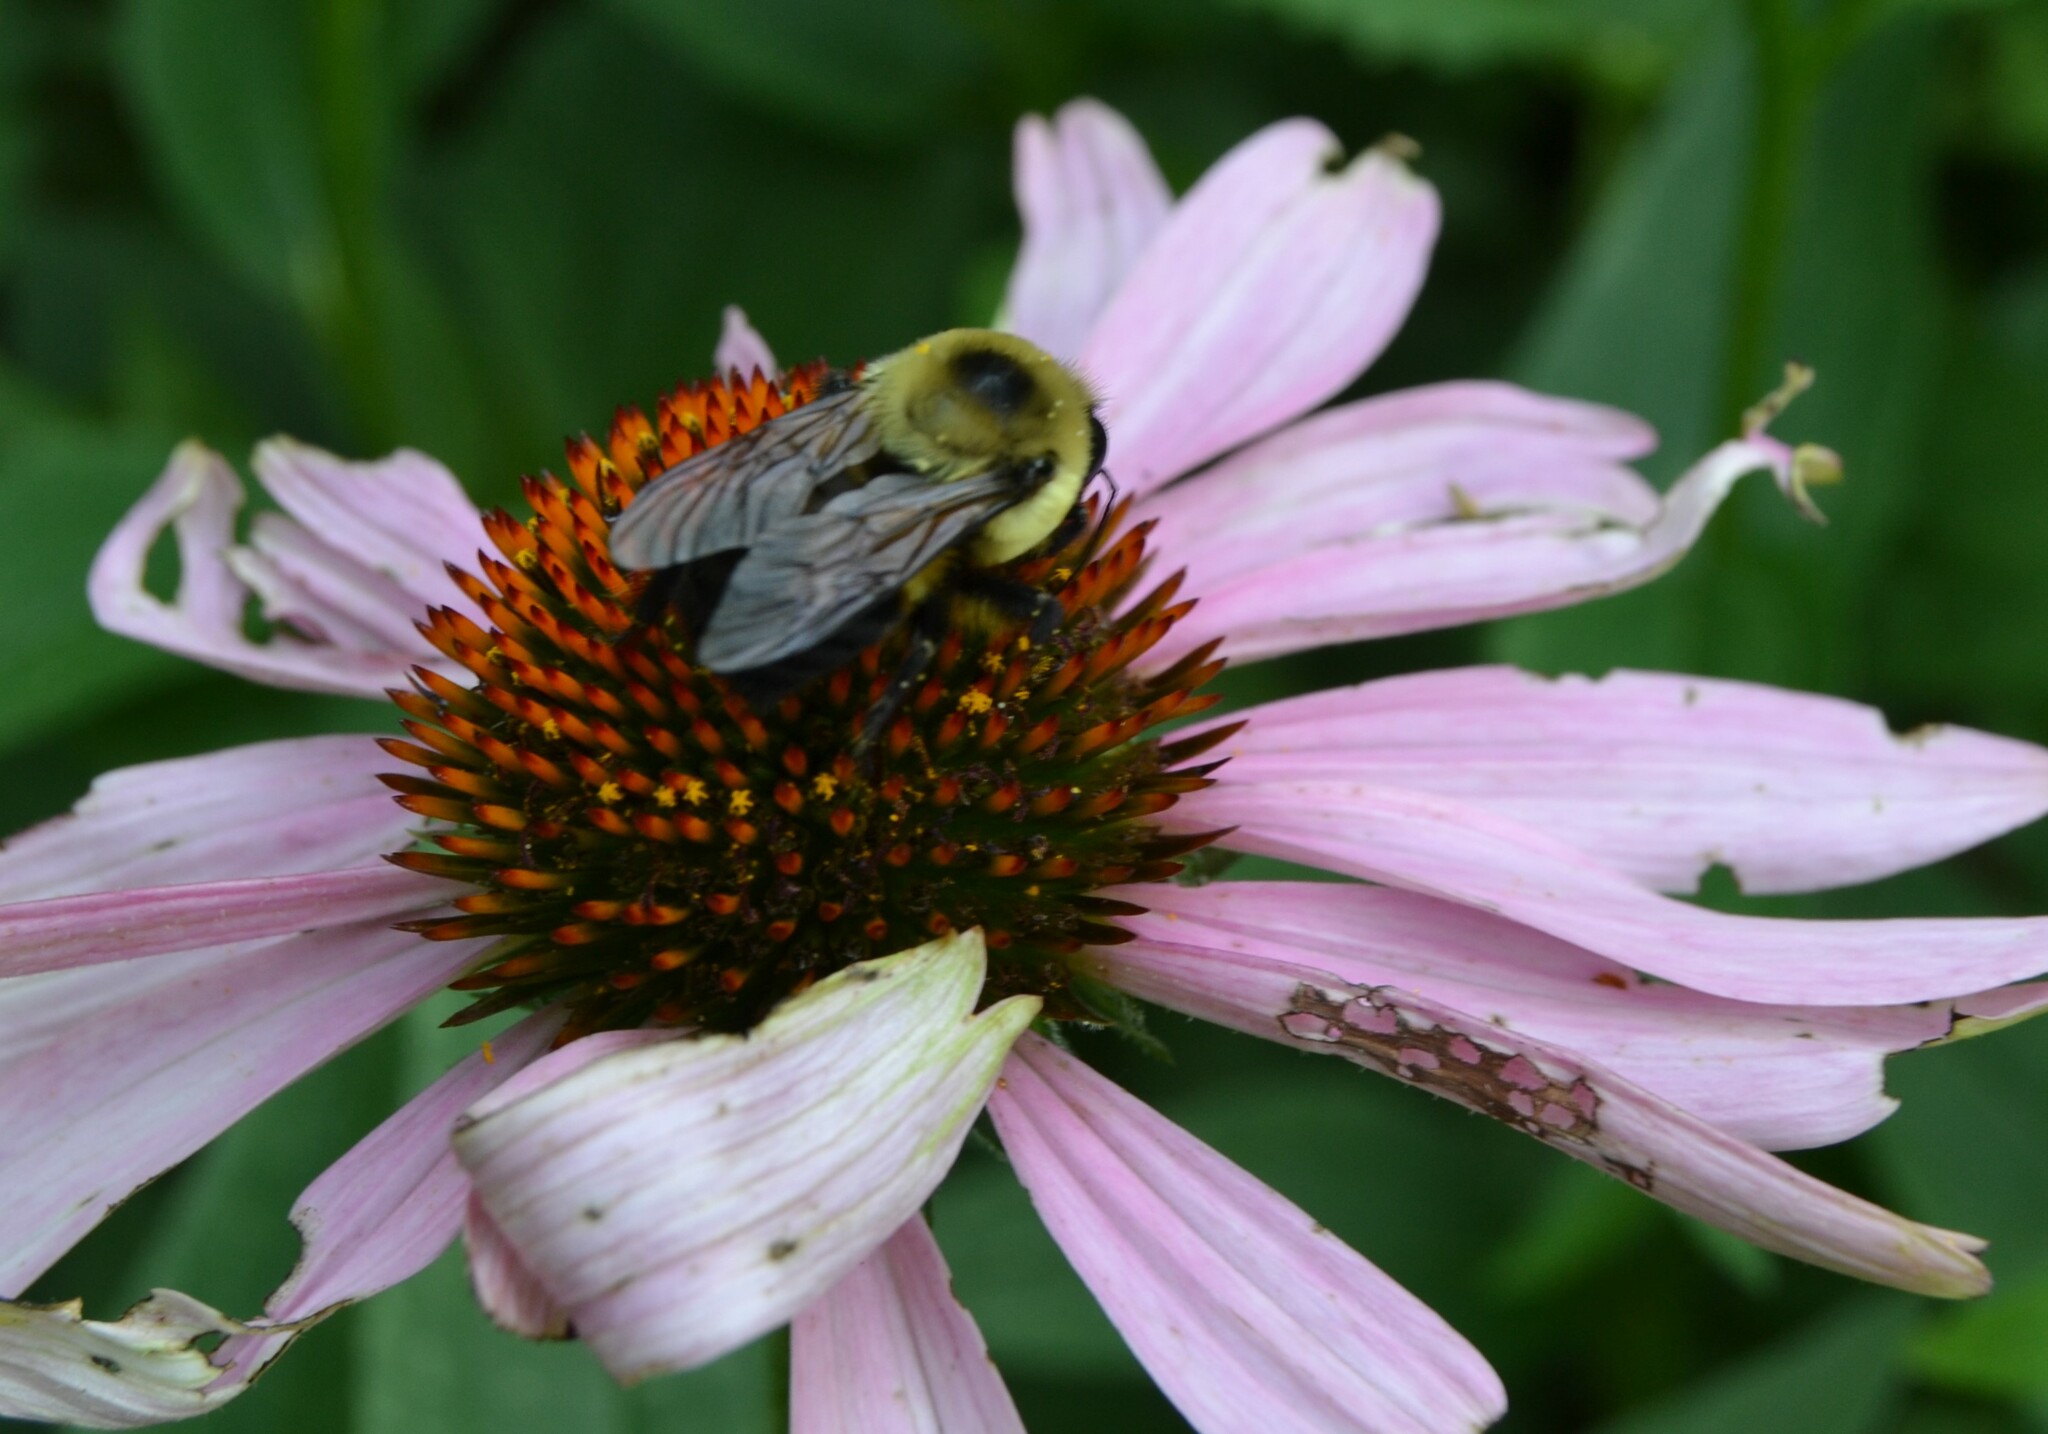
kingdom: Animalia
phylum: Arthropoda
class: Insecta
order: Hymenoptera
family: Apidae
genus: Bombus
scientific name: Bombus griseocollis
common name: Brown-belted bumble bee
